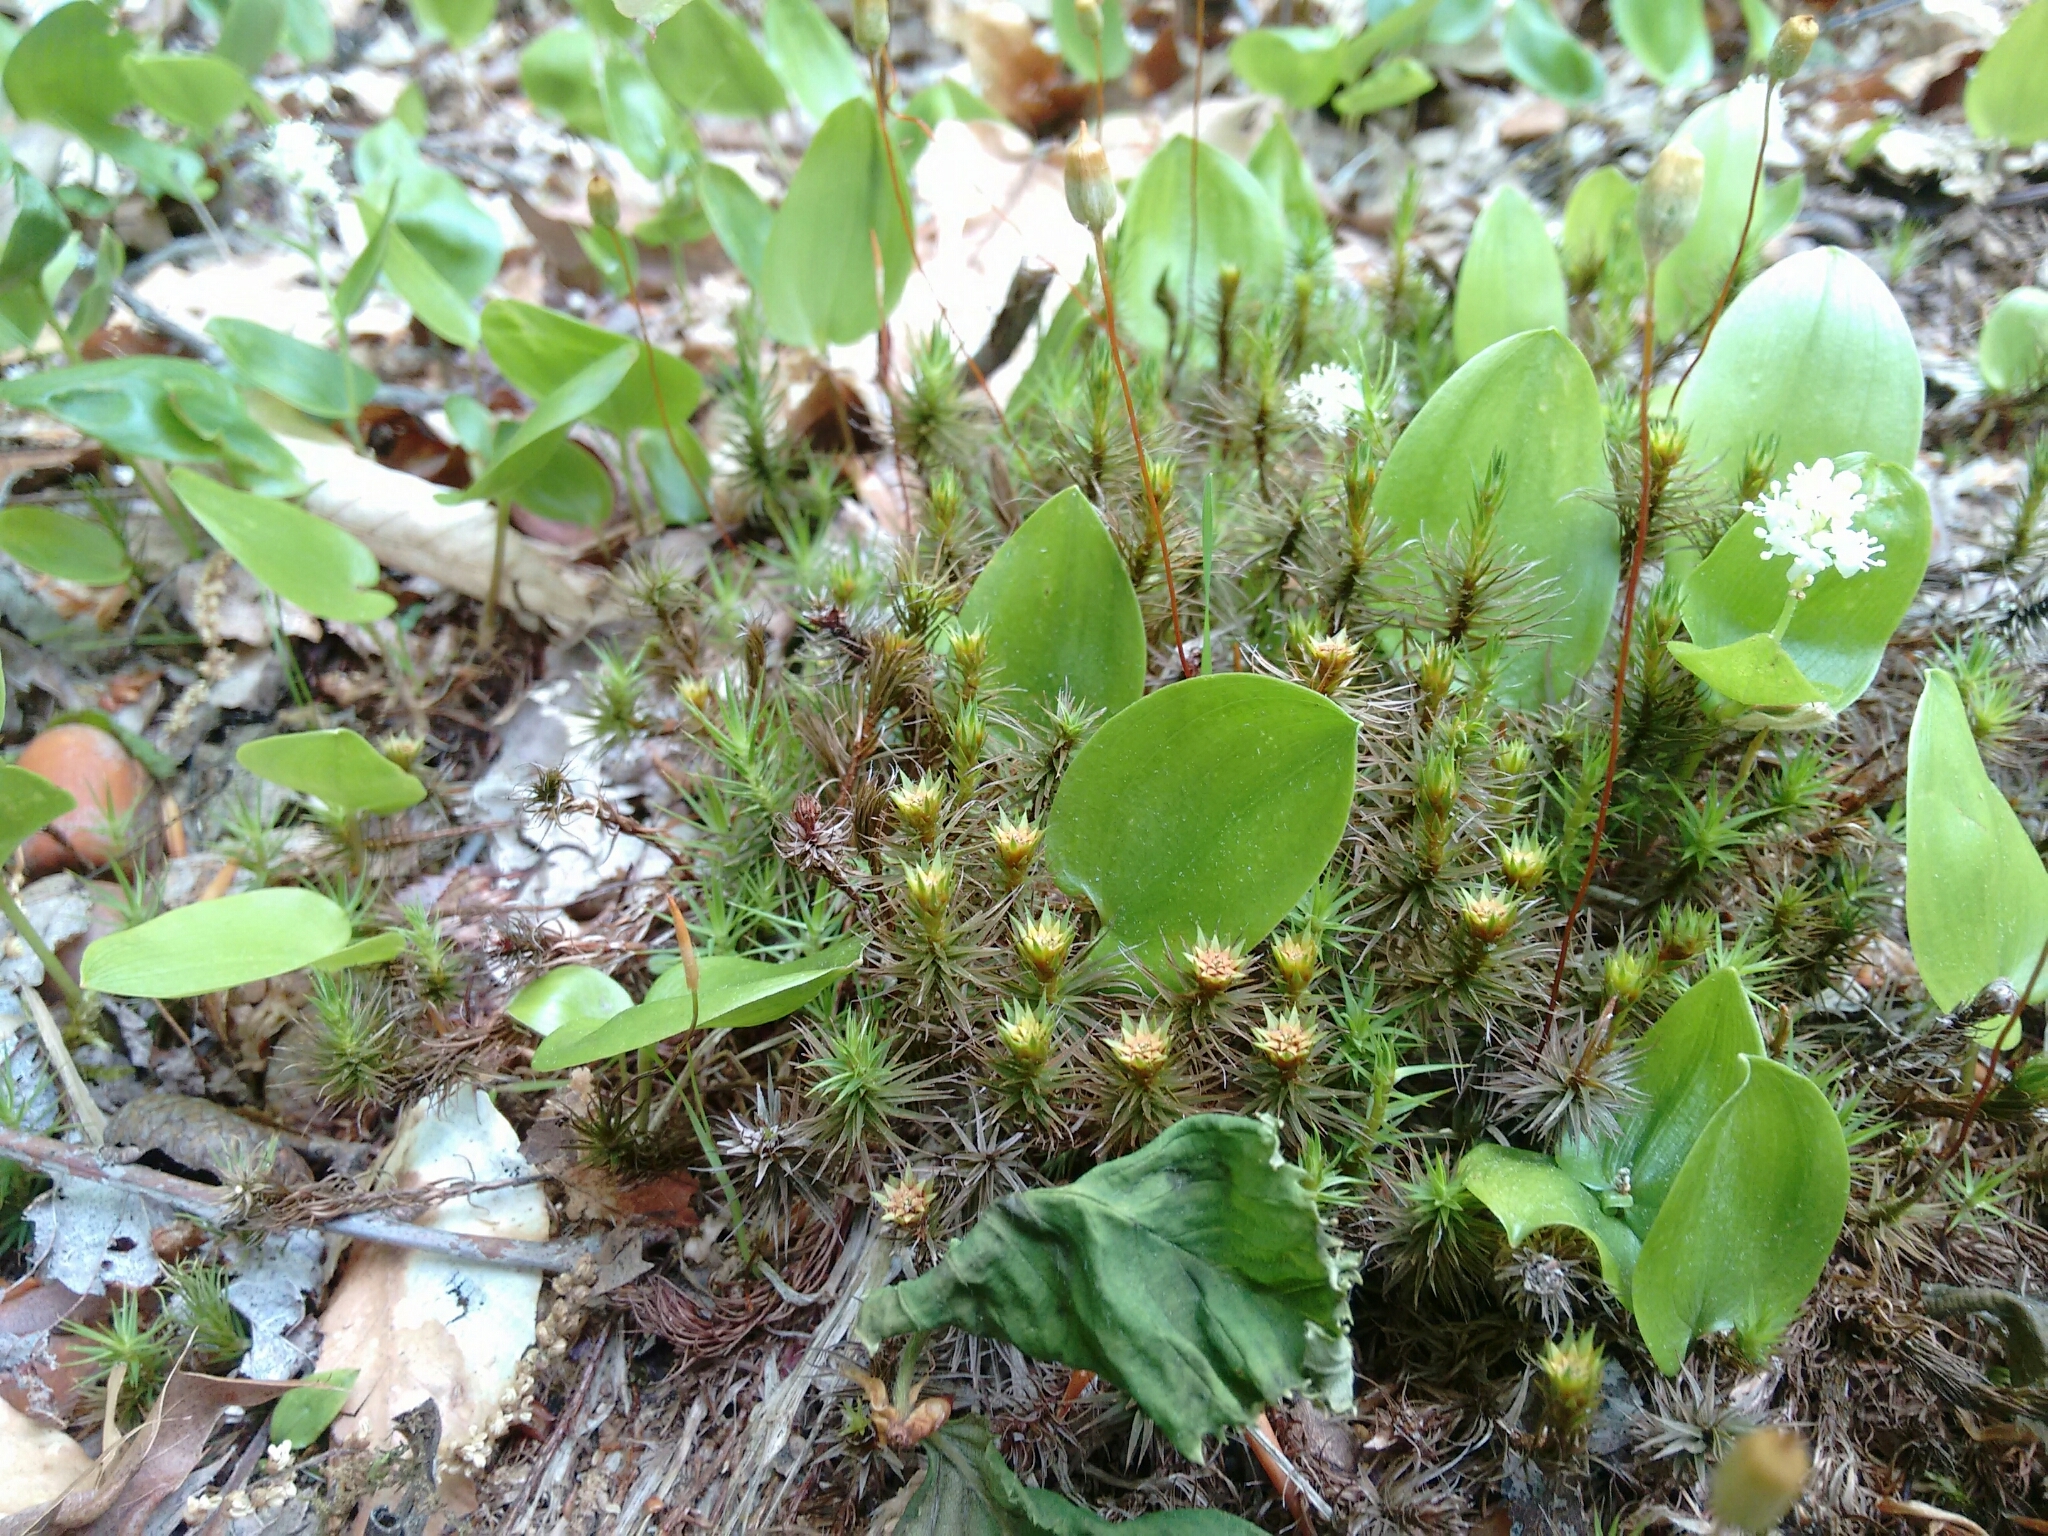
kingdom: Plantae
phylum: Bryophyta
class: Polytrichopsida
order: Polytrichales
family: Polytrichaceae
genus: Polytrichum
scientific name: Polytrichum commune
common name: Common haircap
